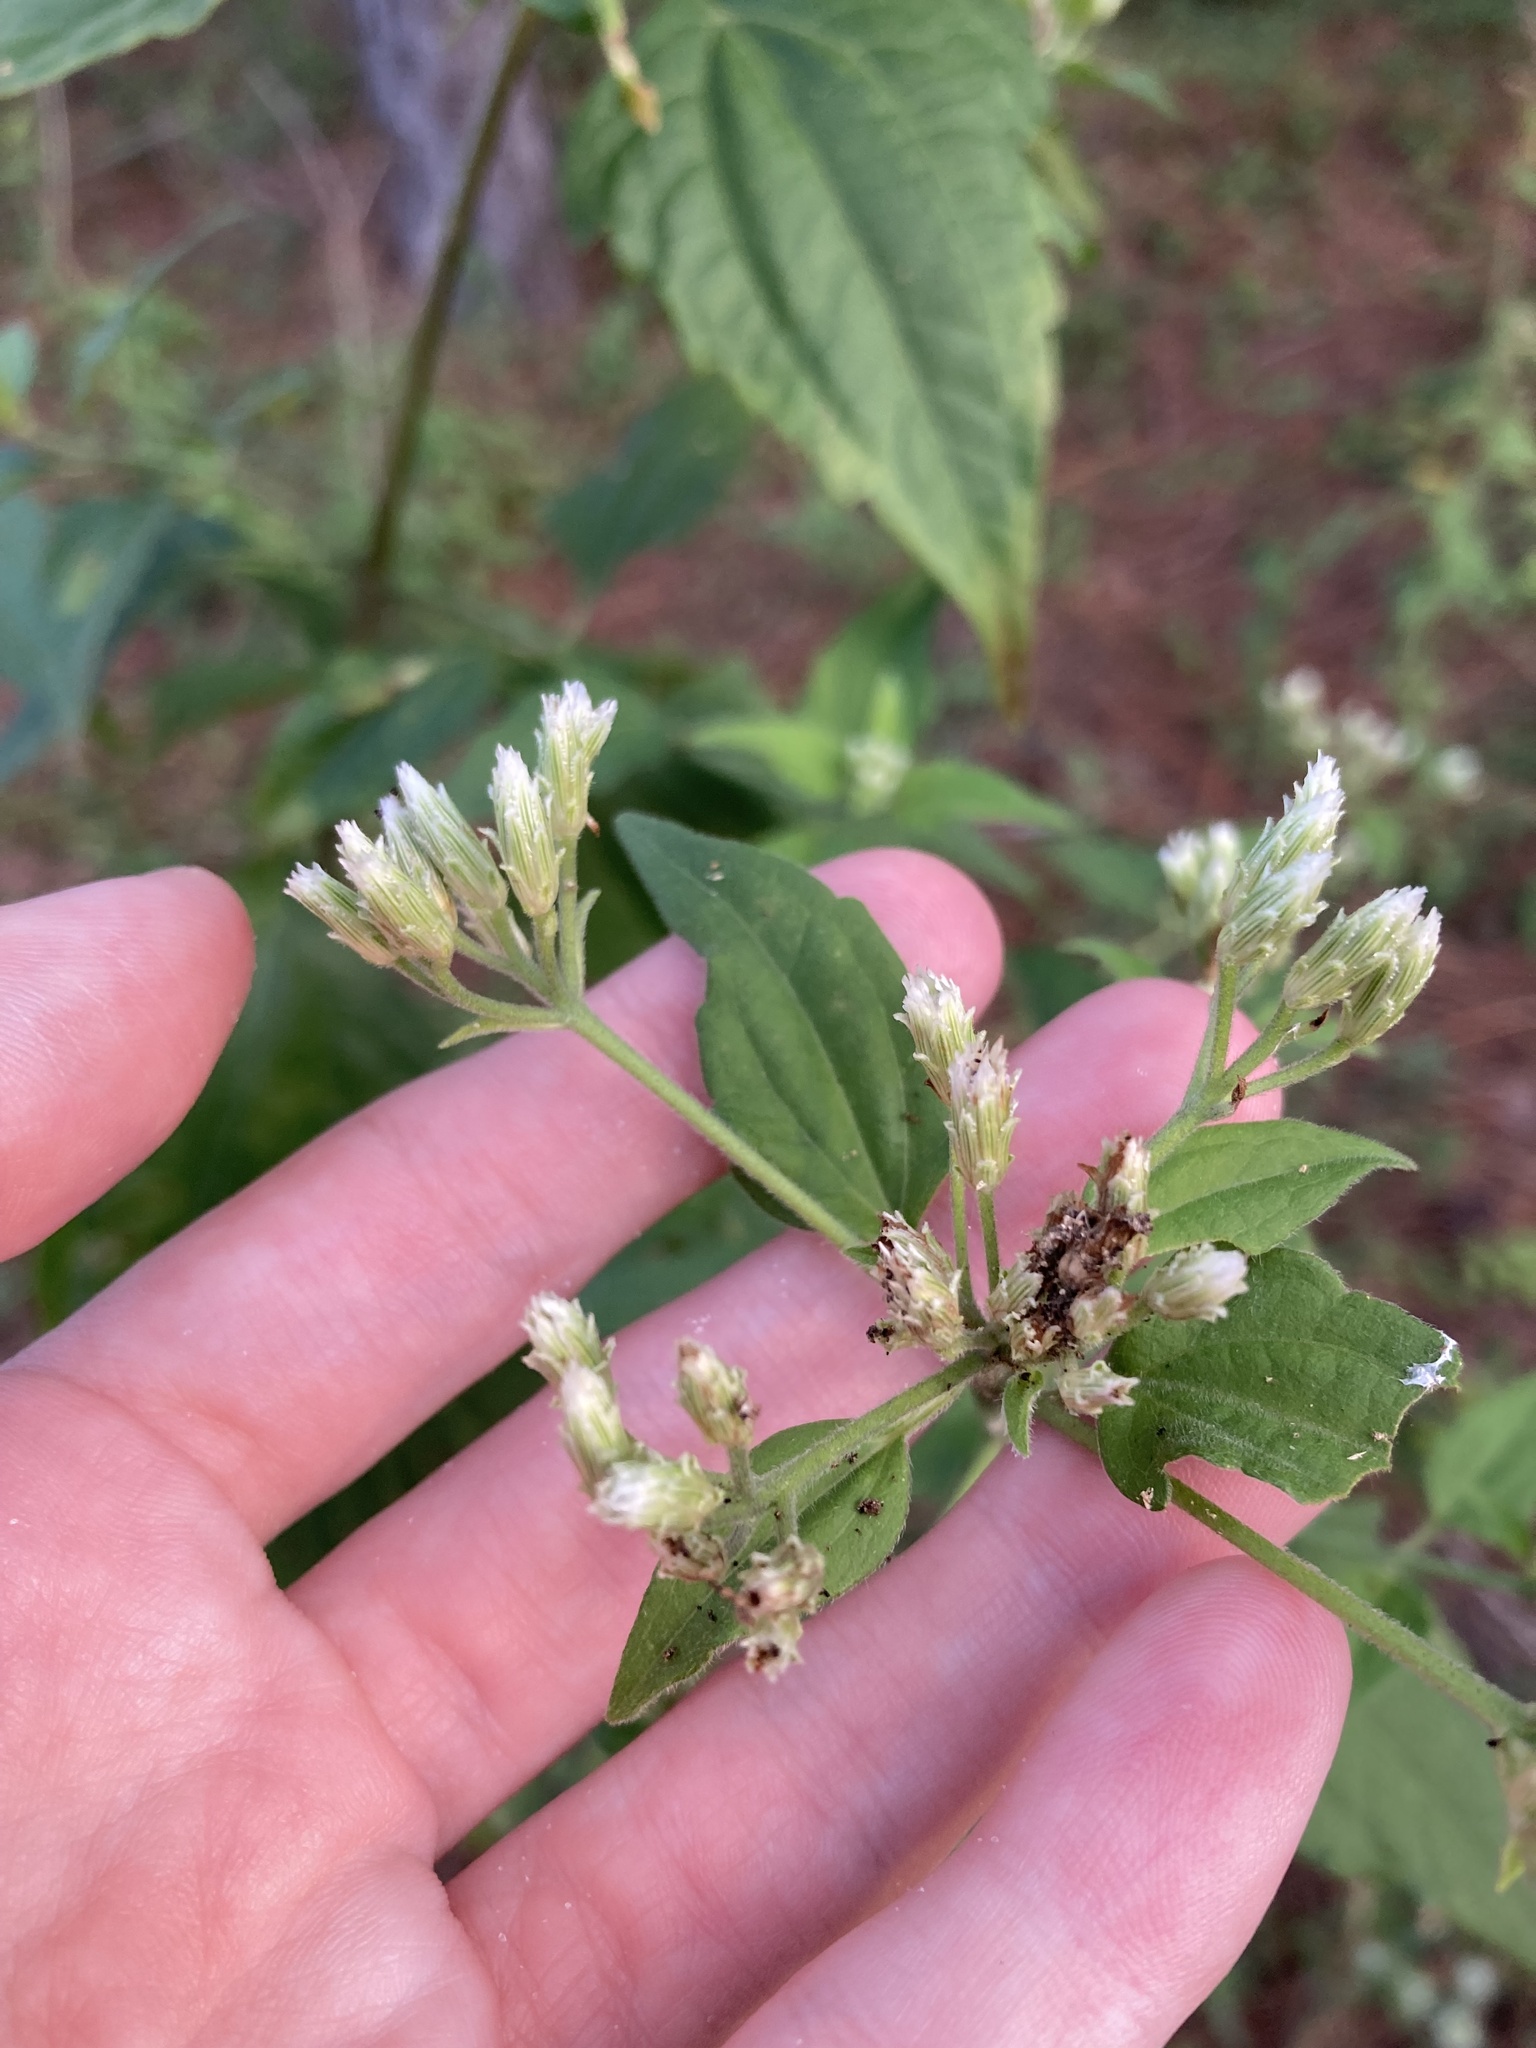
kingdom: Plantae
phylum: Tracheophyta
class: Magnoliopsida
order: Asterales
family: Asteraceae
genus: Chromolaena
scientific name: Chromolaena odorata
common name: Siamweed
